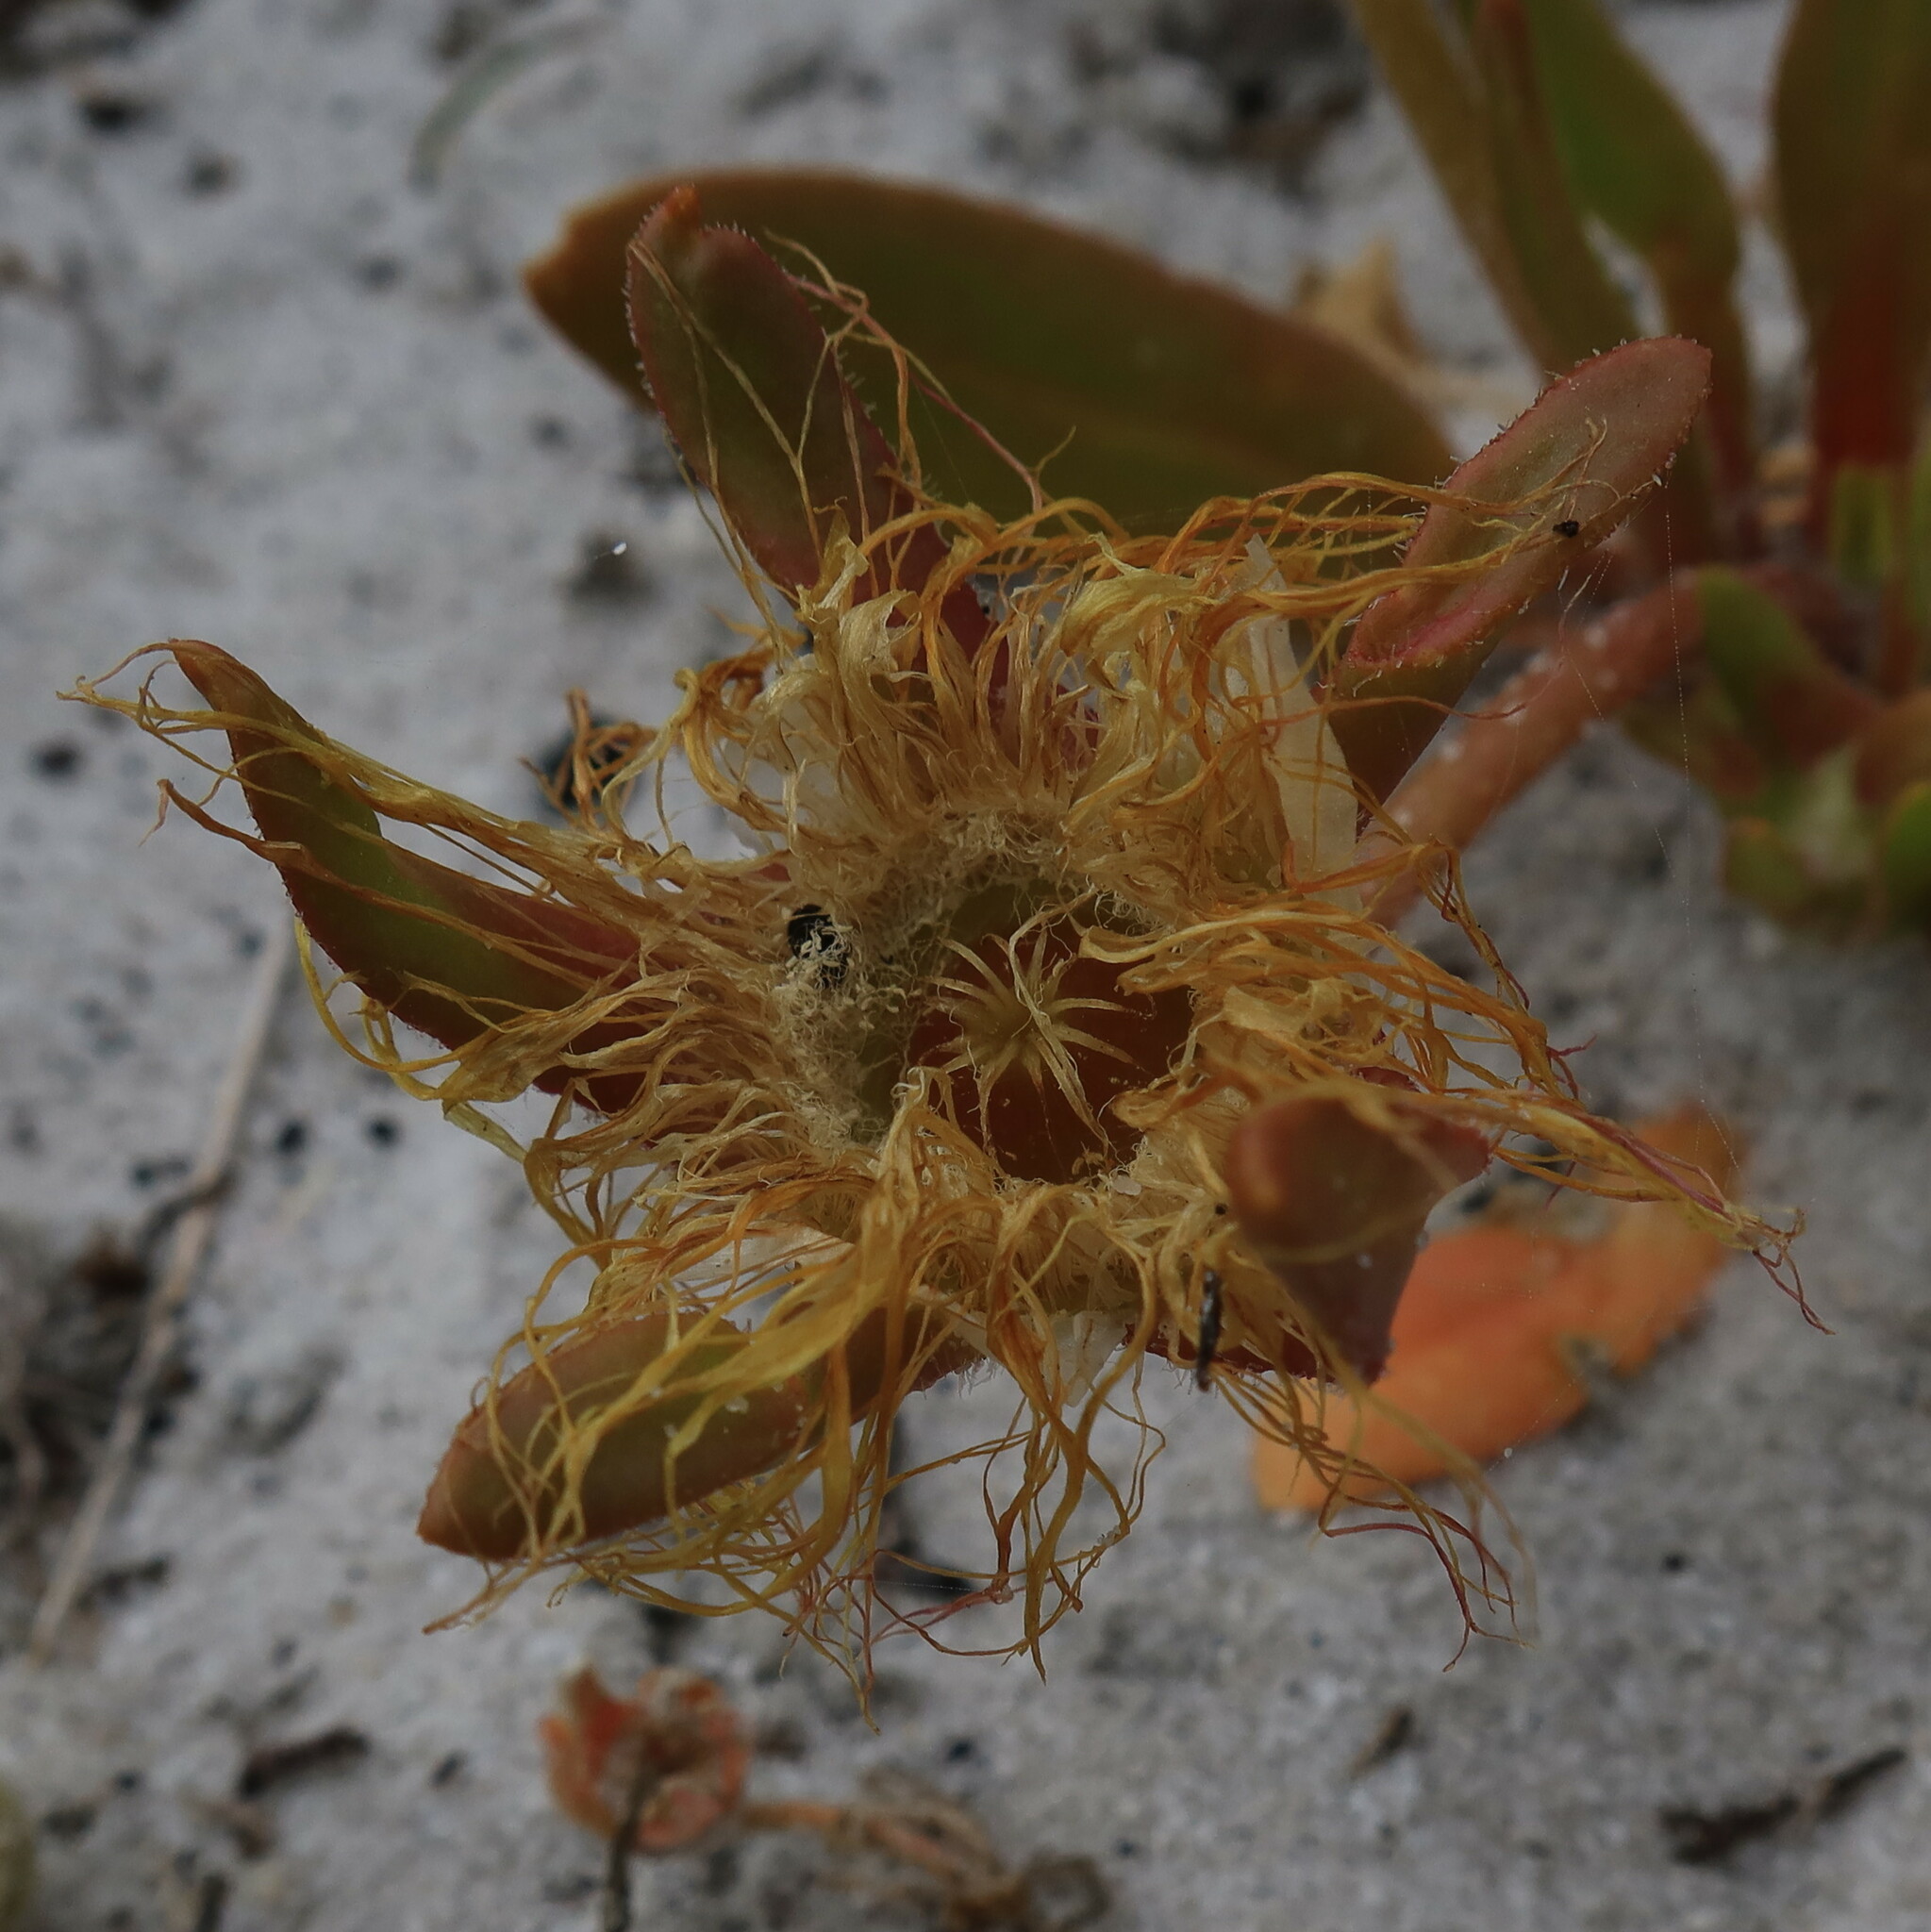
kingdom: Plantae
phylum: Tracheophyta
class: Magnoliopsida
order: Caryophyllales
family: Aizoaceae
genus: Carpanthea
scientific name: Carpanthea pomeridiana
